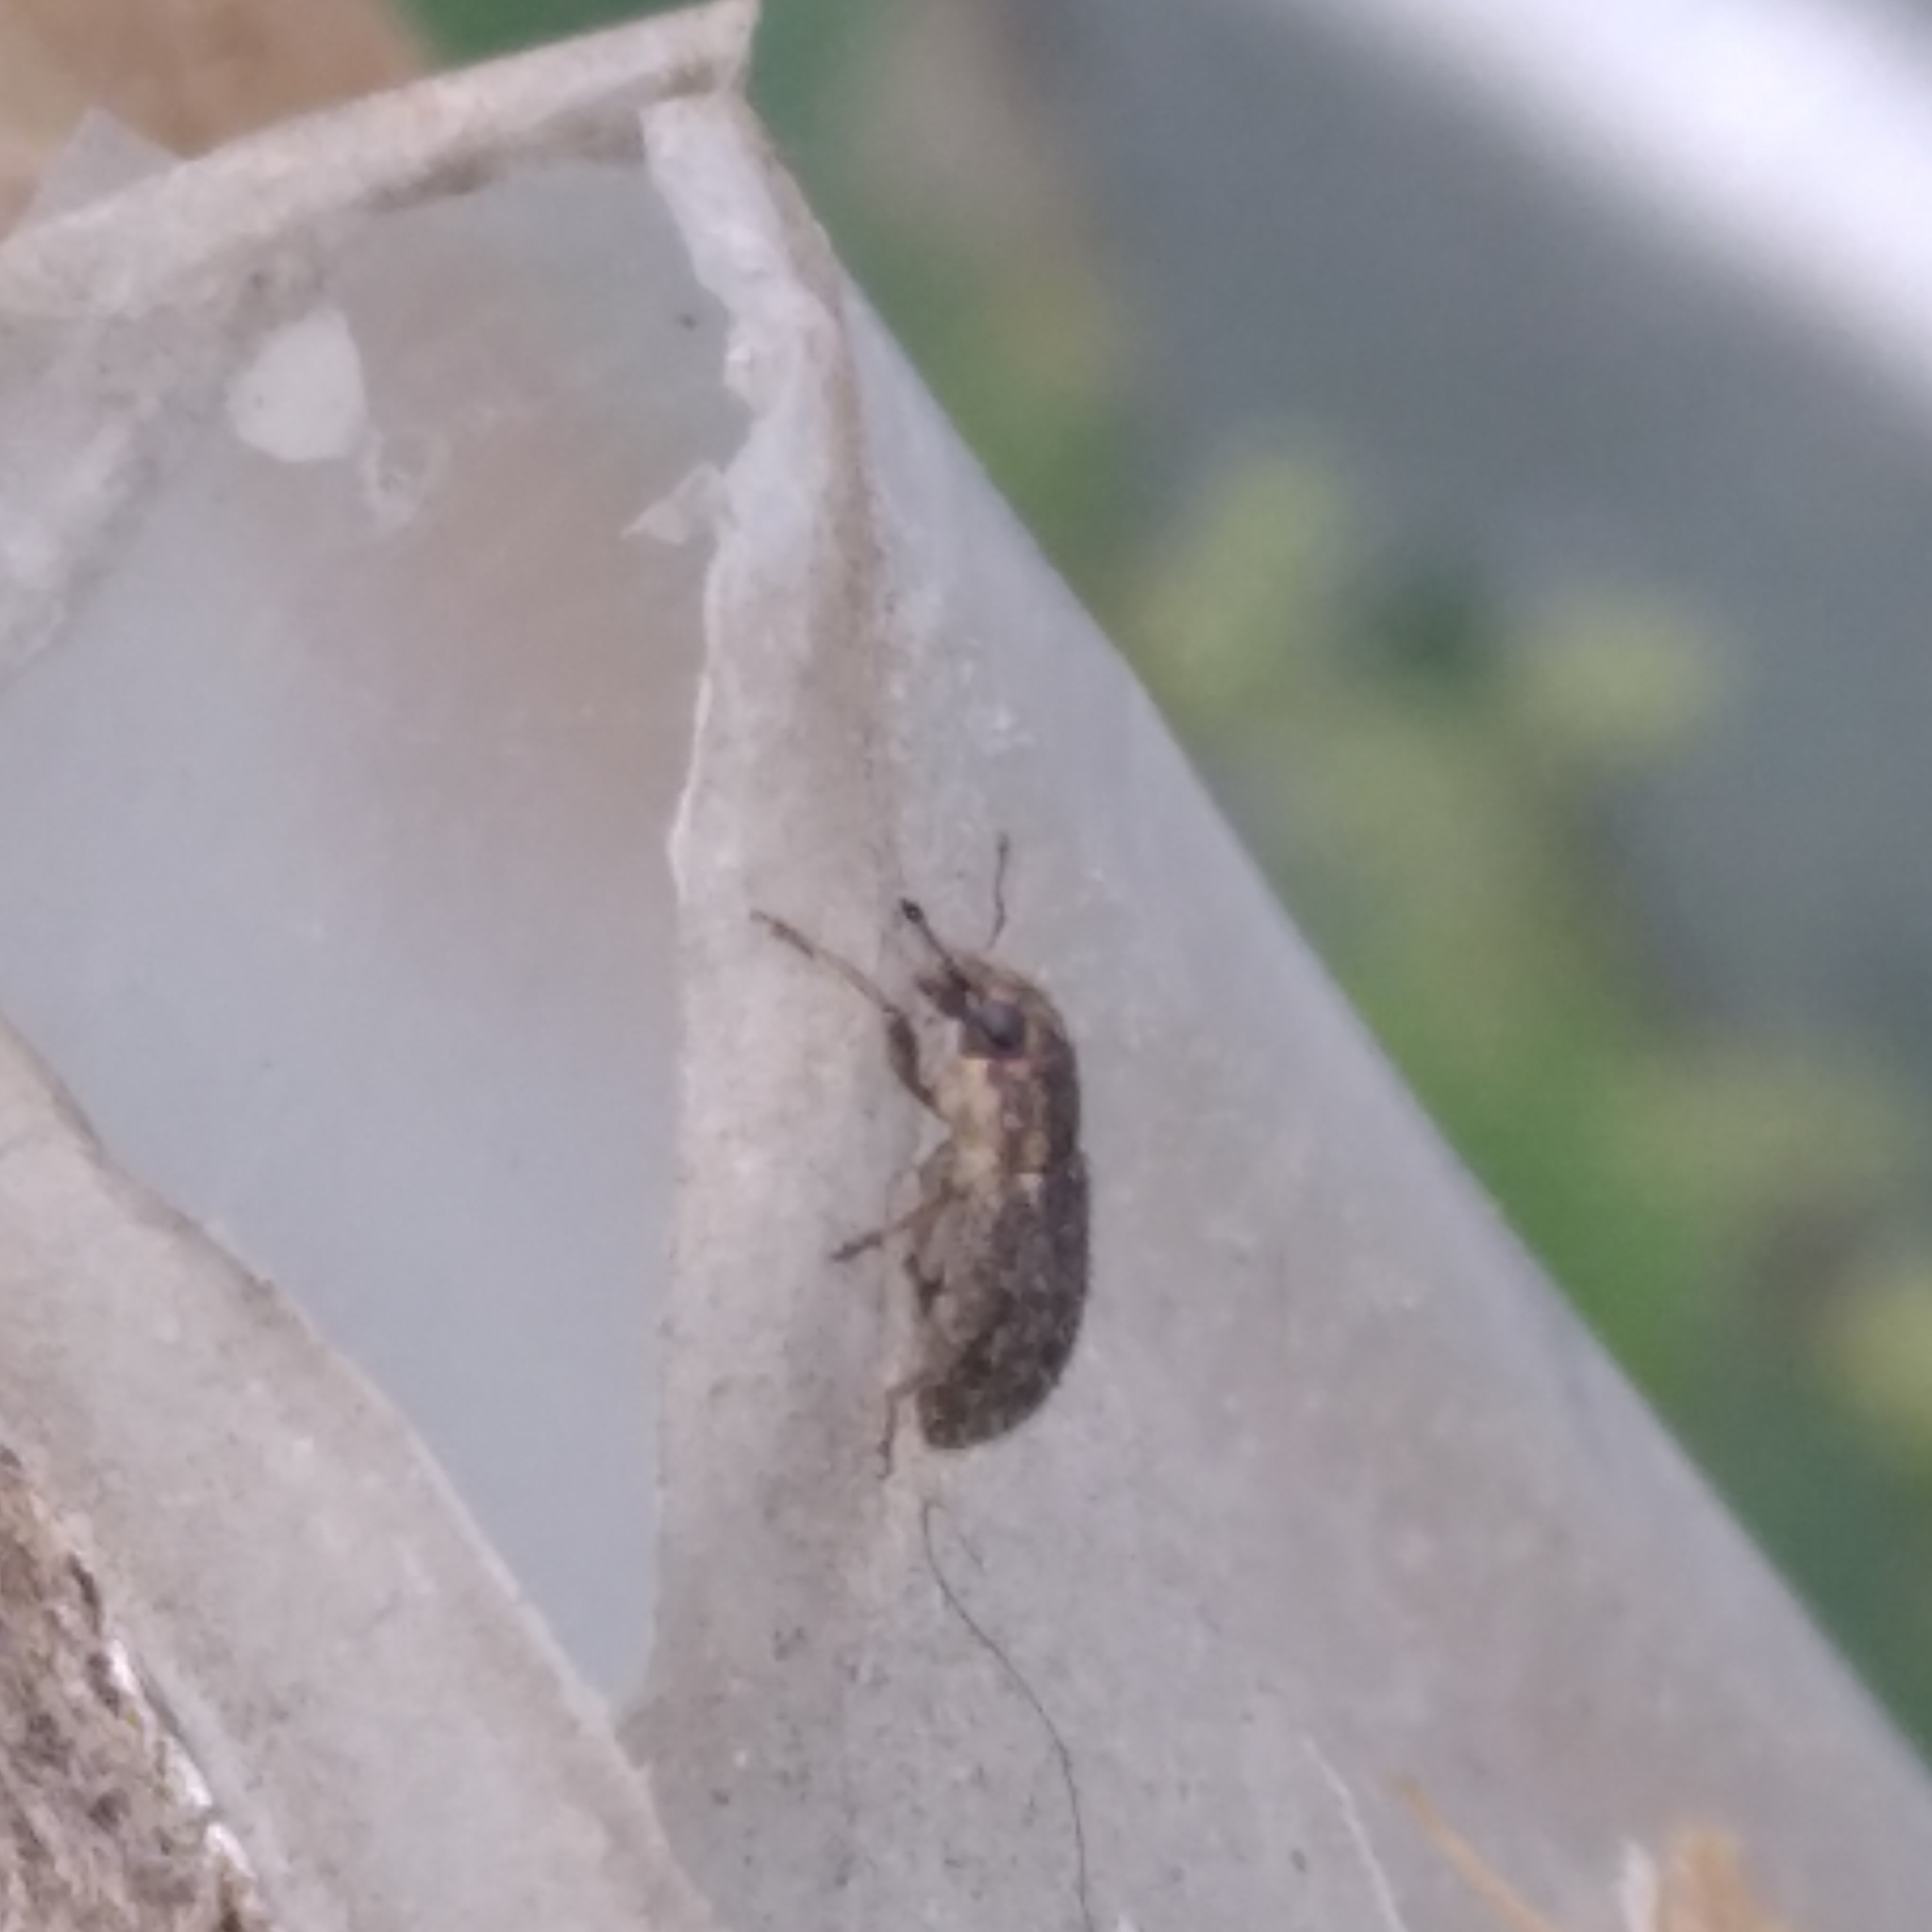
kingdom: Animalia
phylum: Arthropoda
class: Insecta
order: Coleoptera
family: Curculionidae
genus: Sitona
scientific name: Sitona hispidulus
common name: Clover weevil
